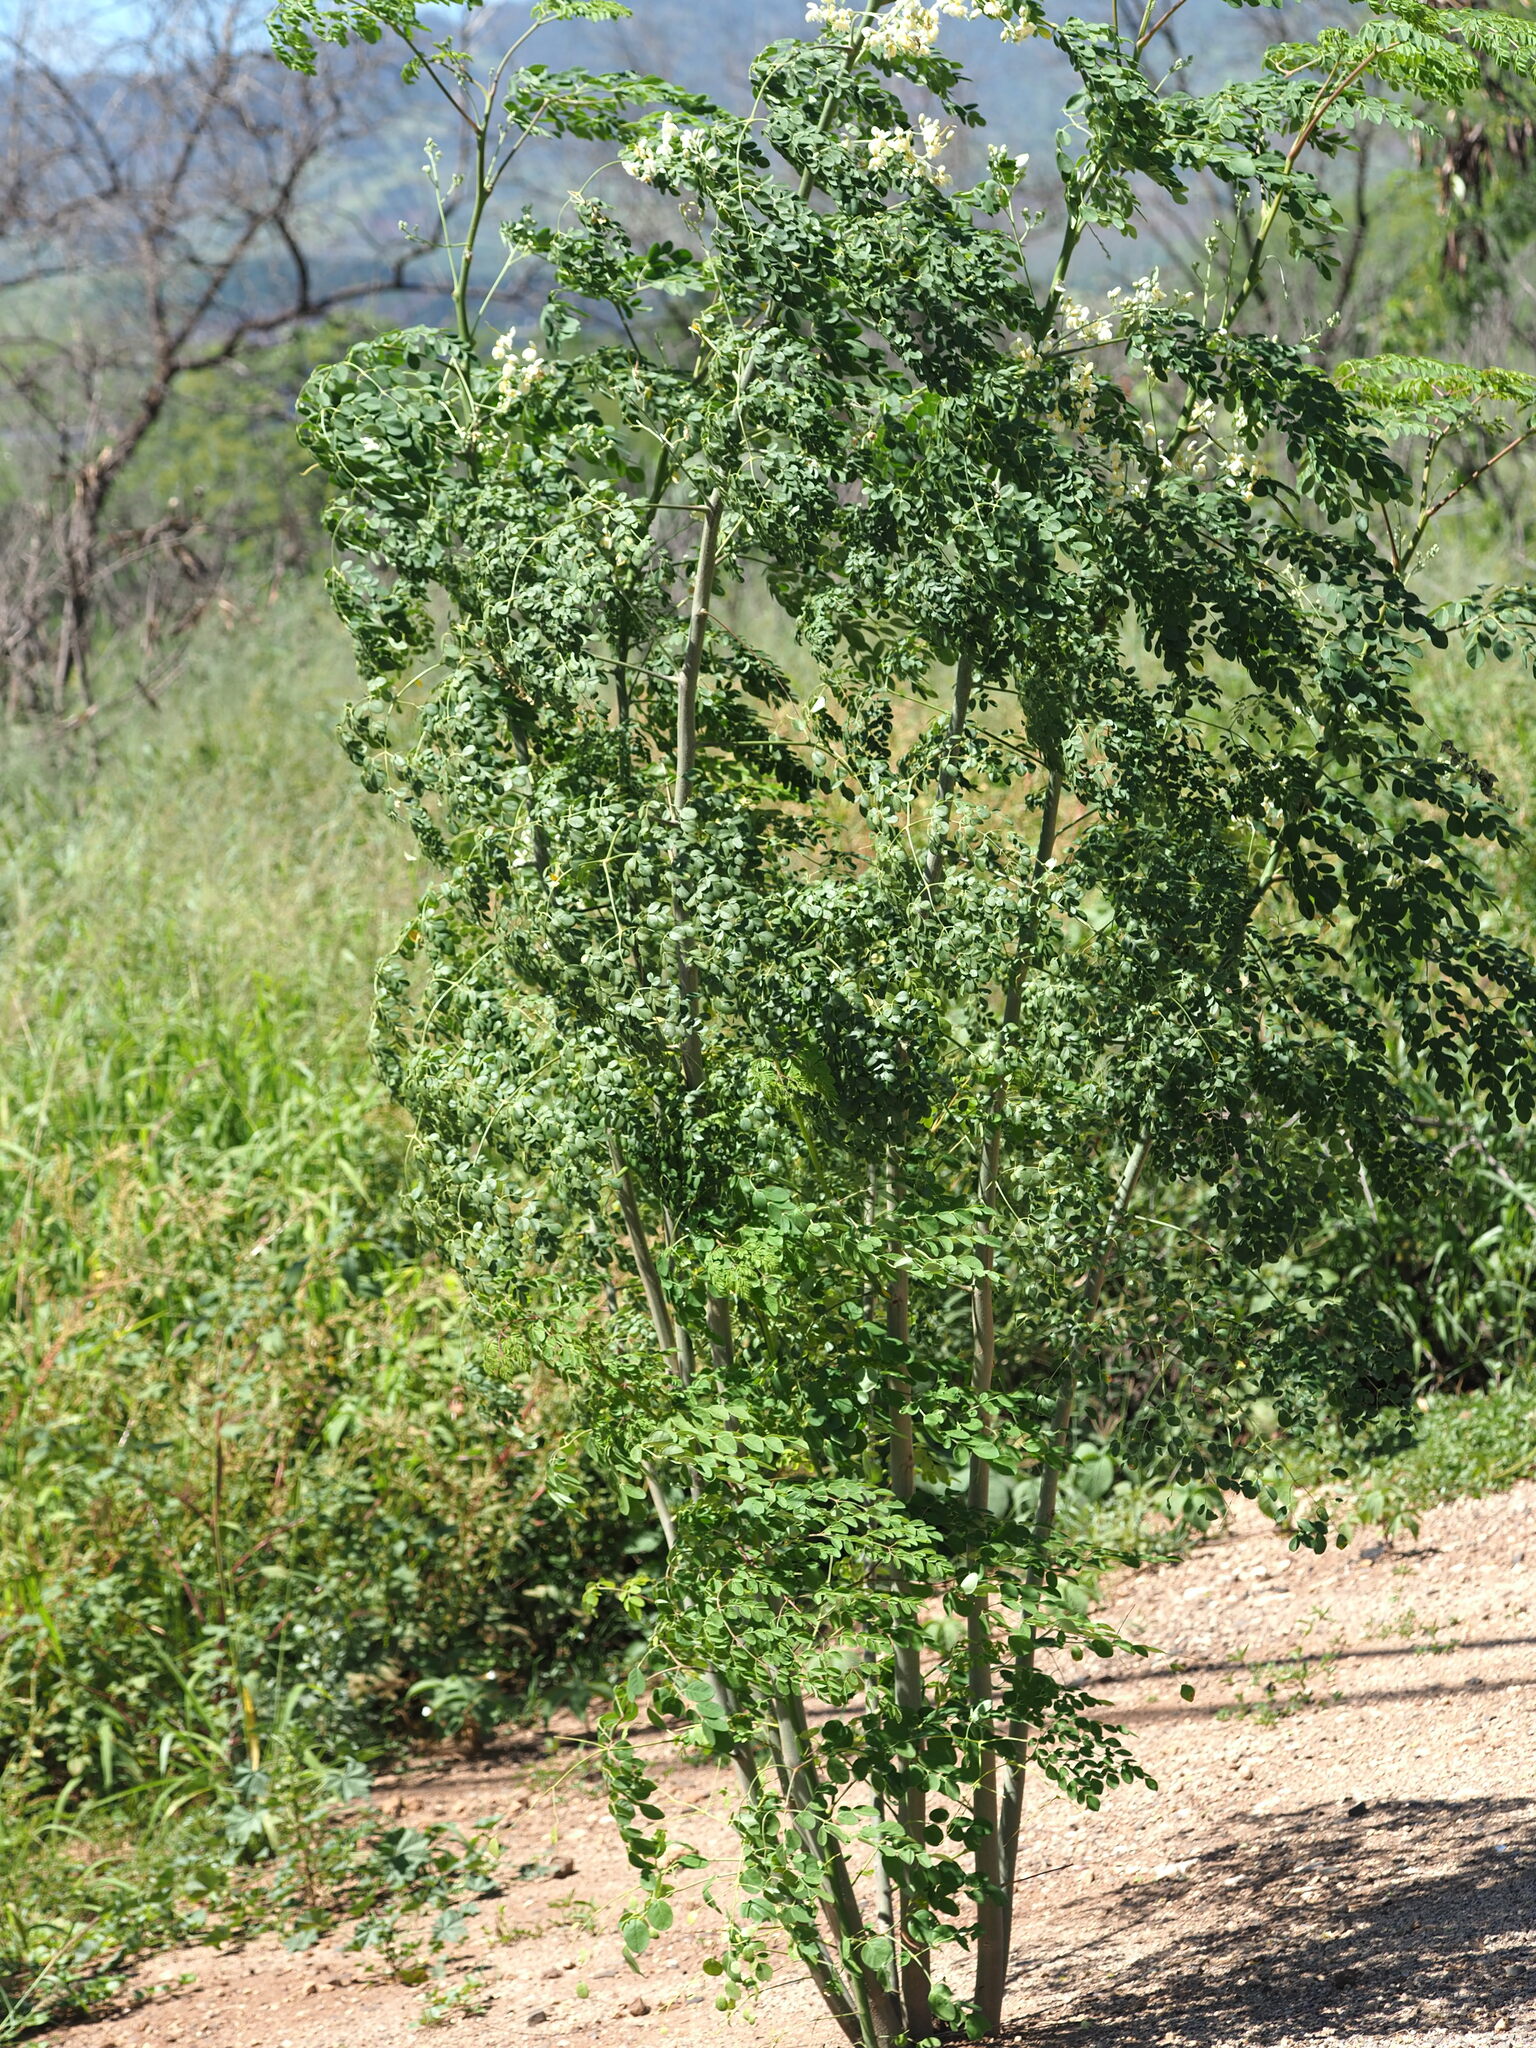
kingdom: Plantae
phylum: Tracheophyta
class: Magnoliopsida
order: Brassicales
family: Moringaceae
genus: Moringa
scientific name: Moringa oleifera
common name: Horseradish-tree
